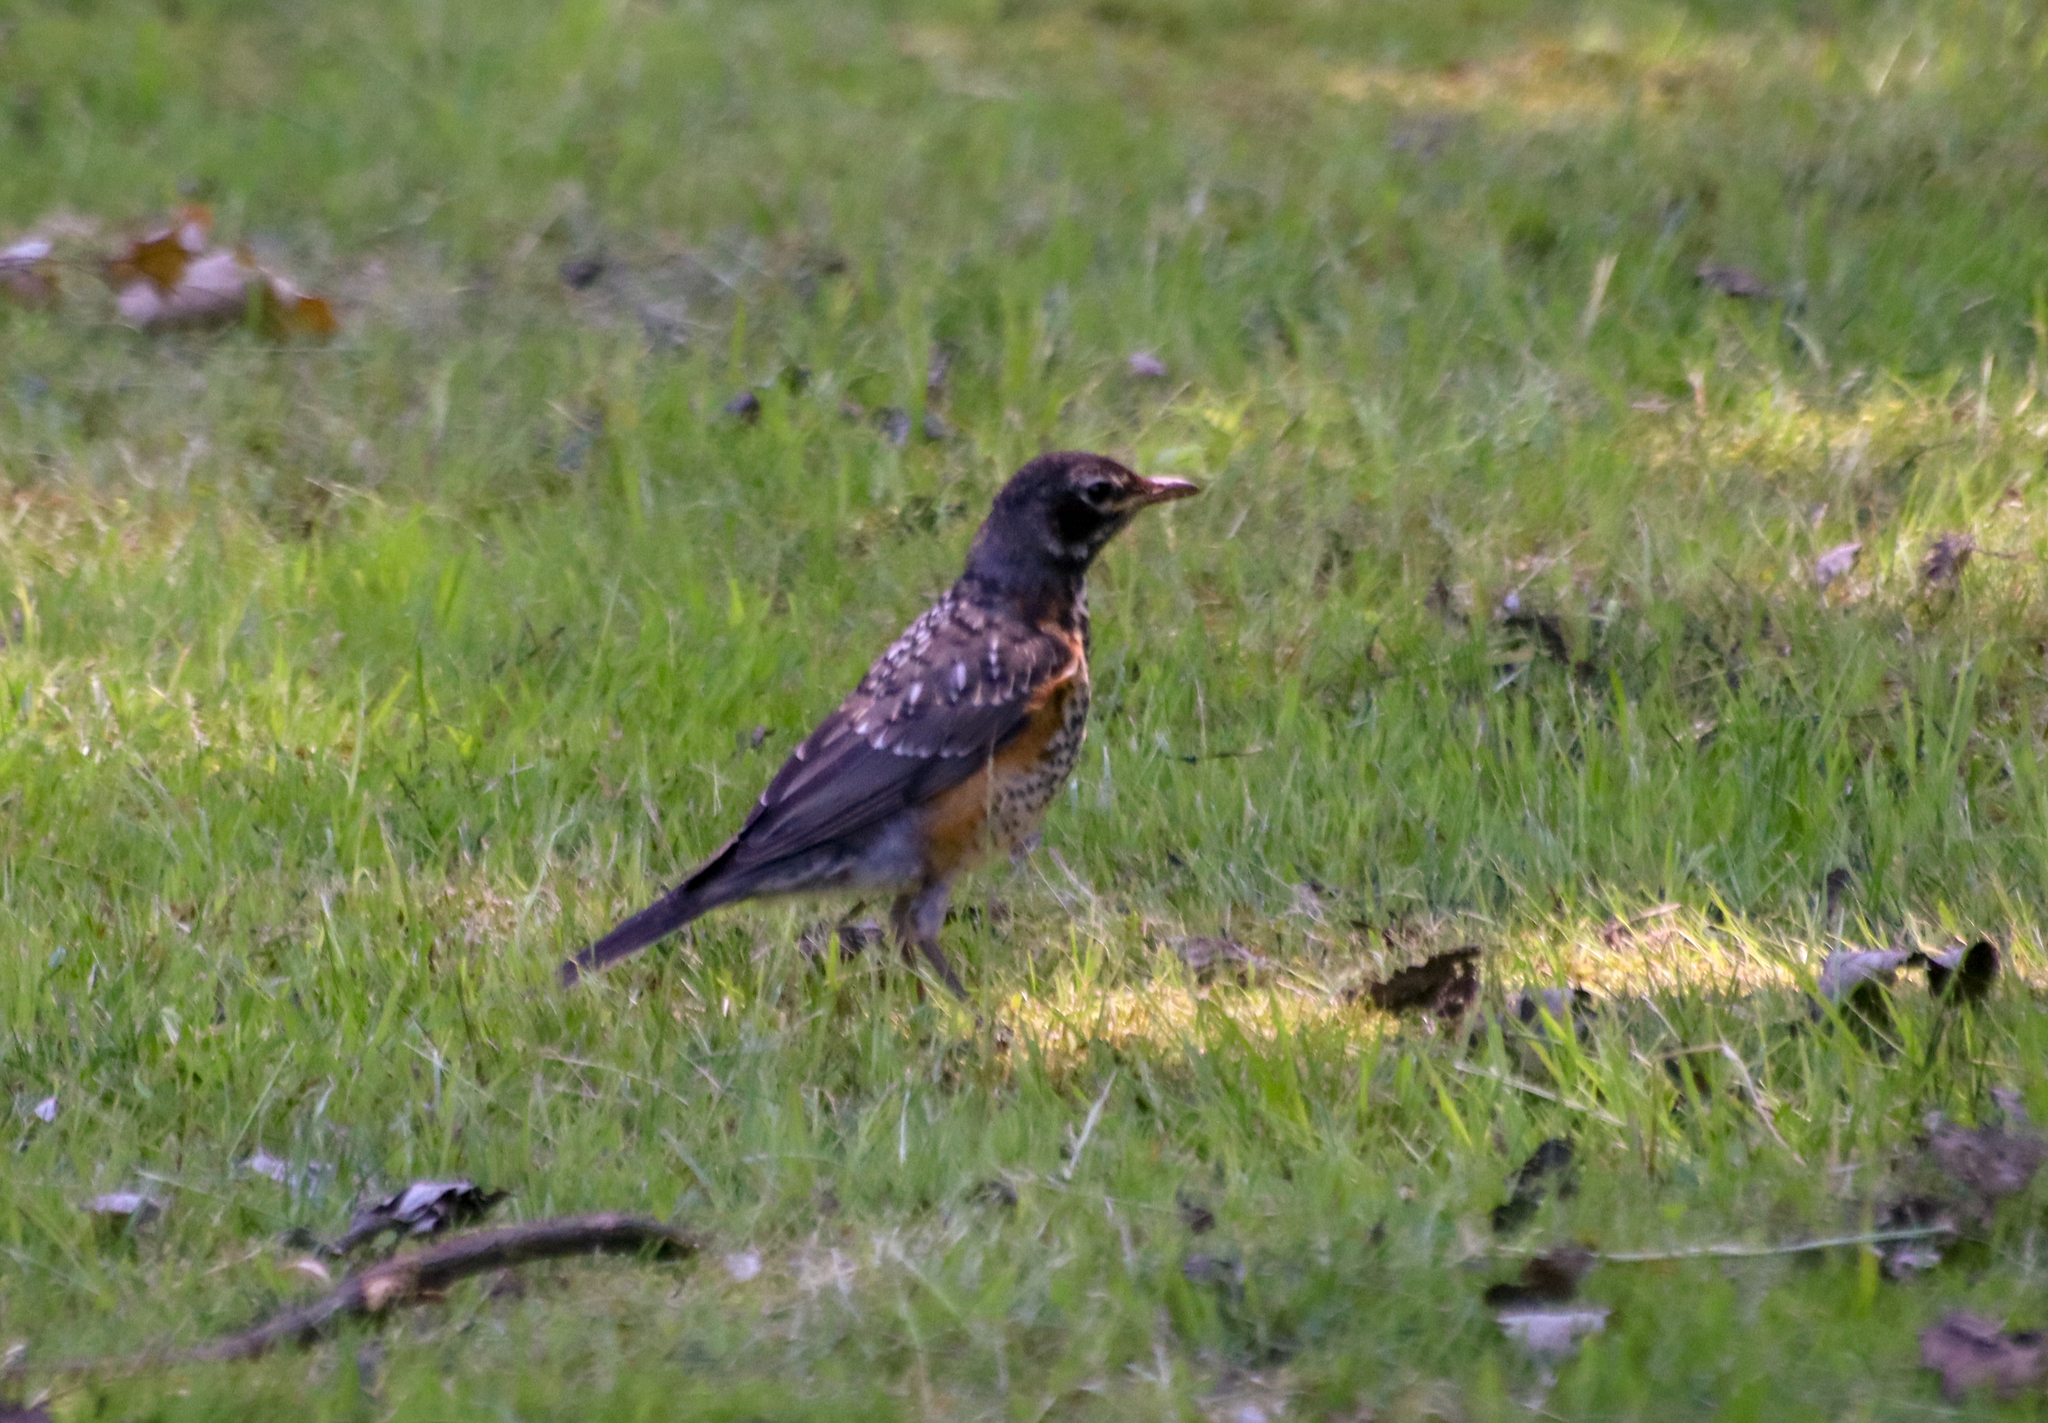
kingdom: Animalia
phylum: Chordata
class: Aves
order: Passeriformes
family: Turdidae
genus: Turdus
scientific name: Turdus migratorius
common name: American robin
